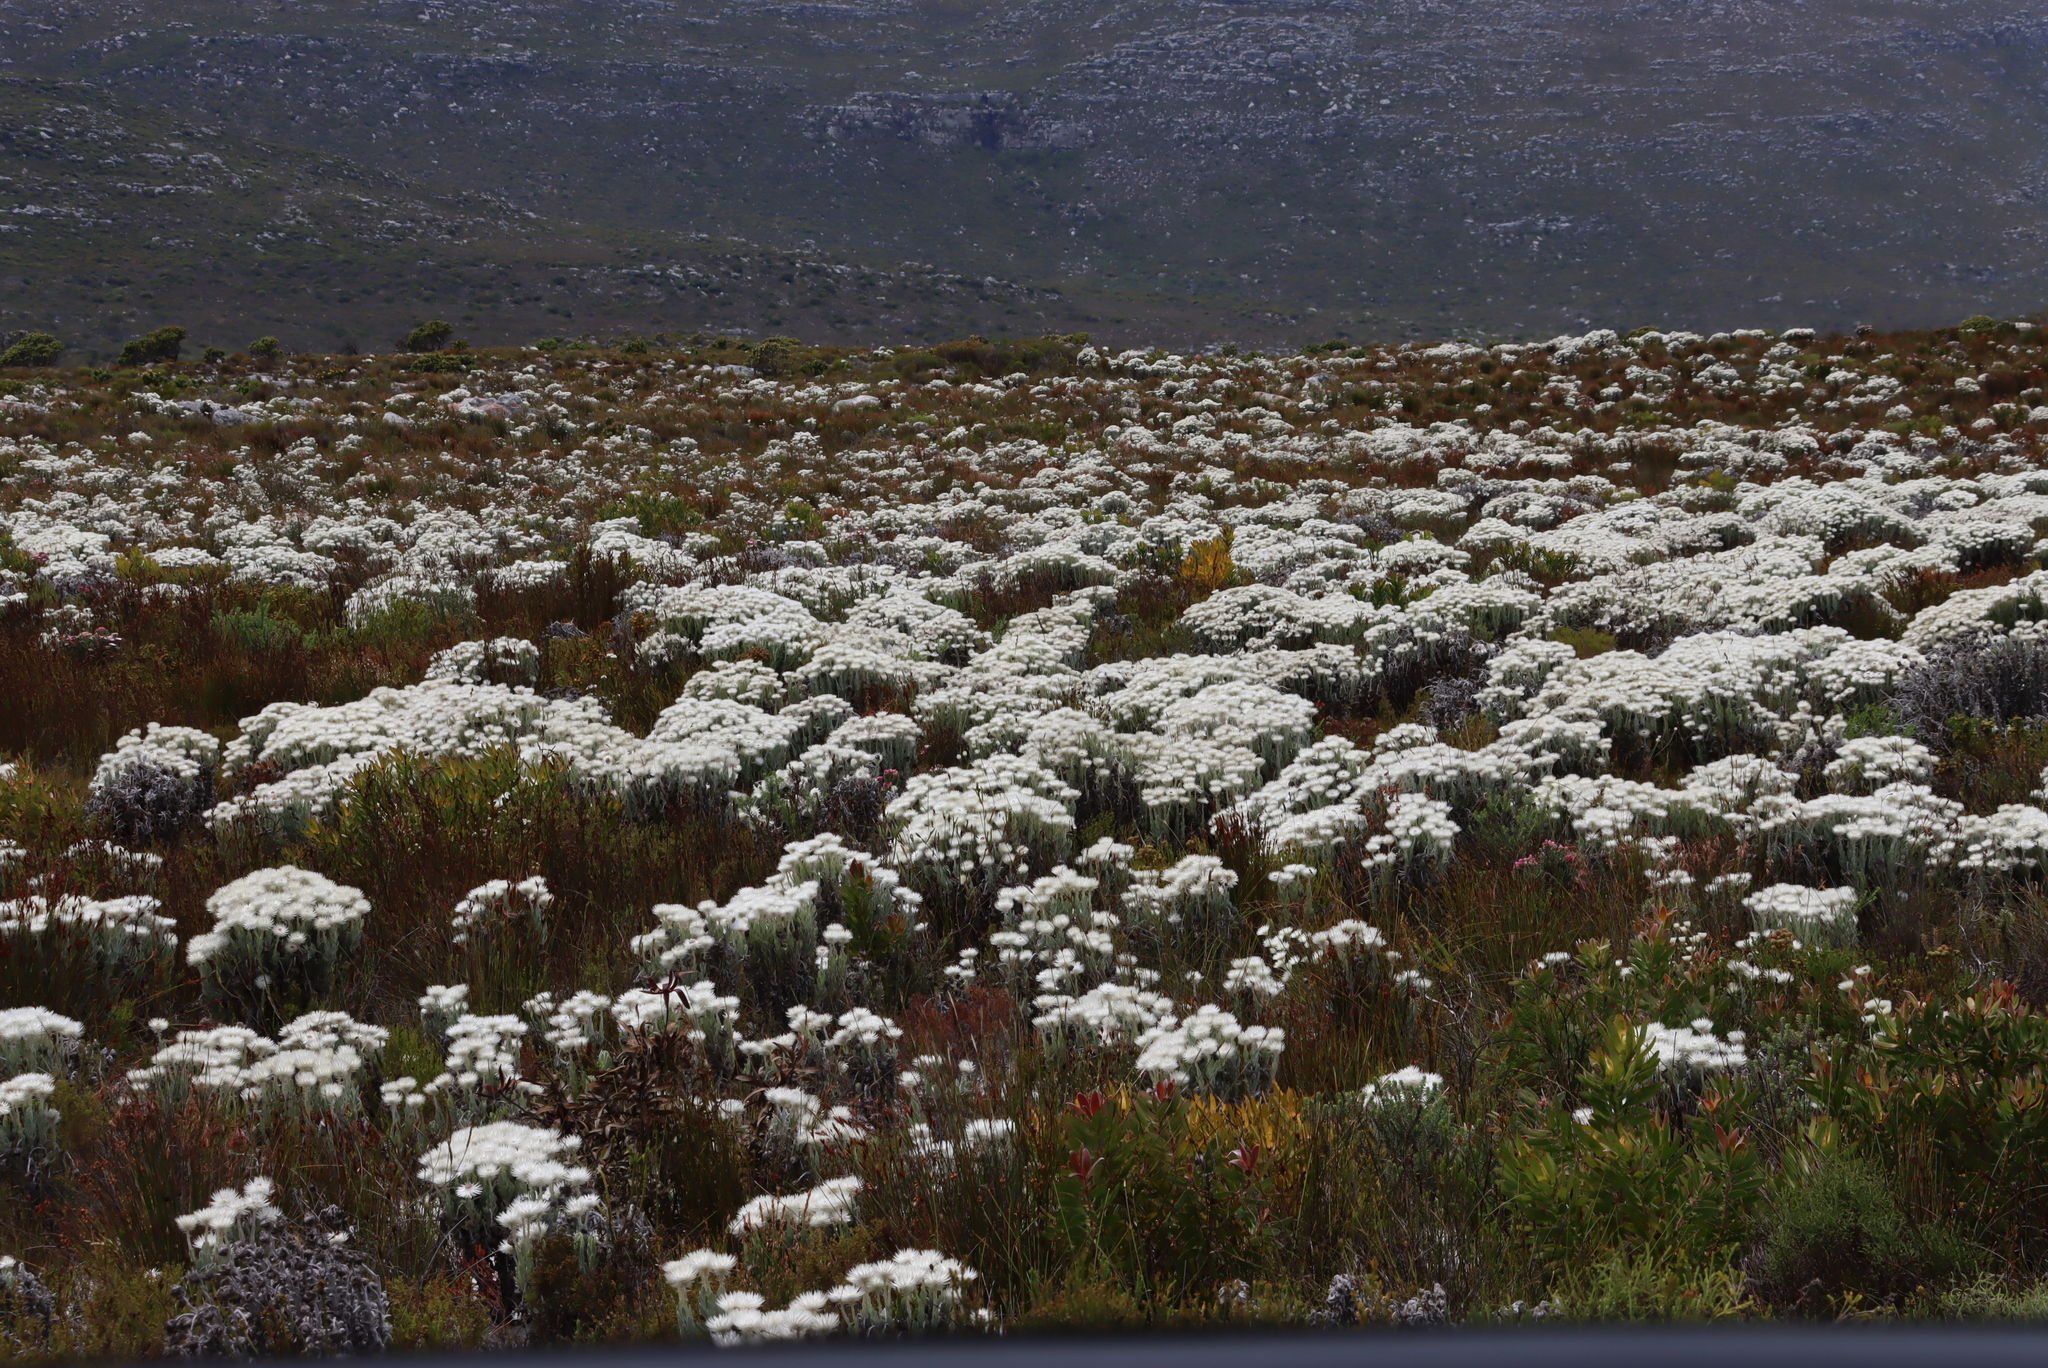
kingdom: Plantae
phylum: Tracheophyta
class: Magnoliopsida
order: Asterales
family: Asteraceae
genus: Syncarpha
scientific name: Syncarpha vestita
